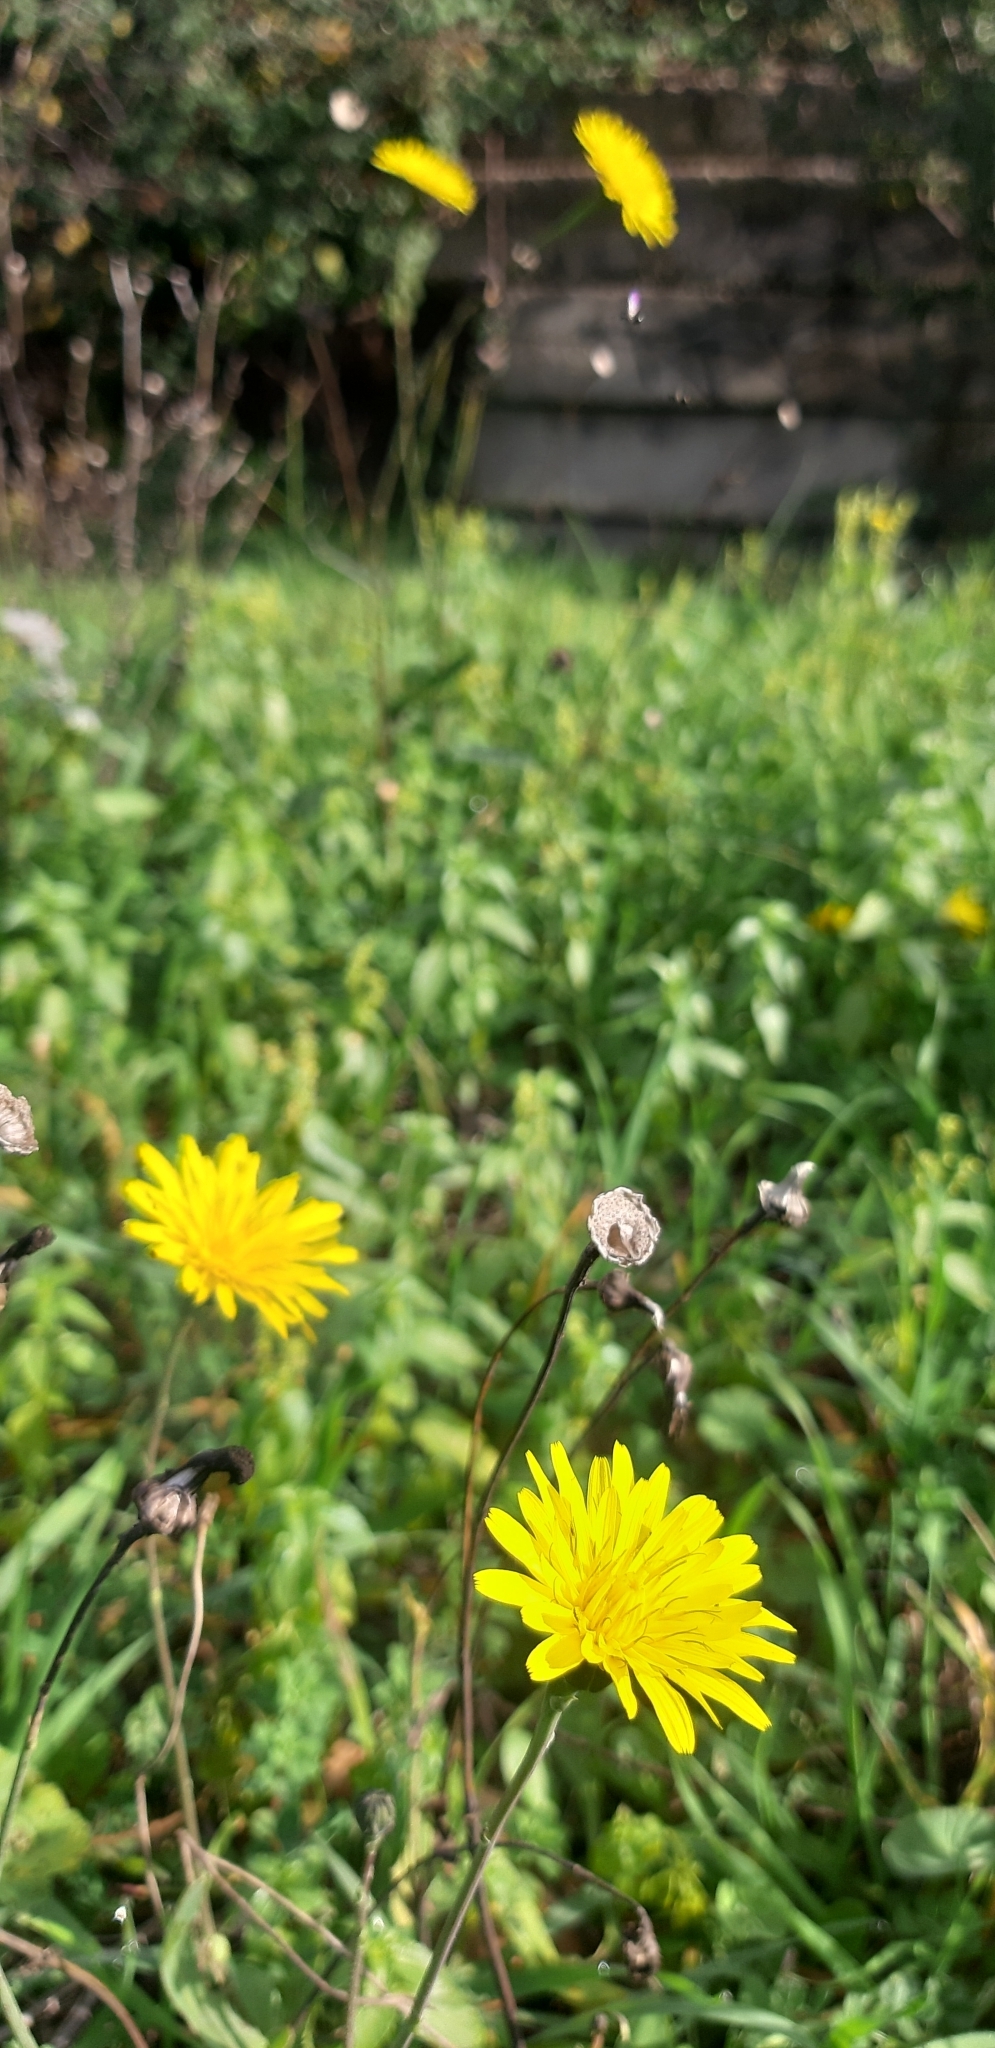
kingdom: Plantae
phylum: Tracheophyta
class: Magnoliopsida
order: Asterales
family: Asteraceae
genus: Reichardia
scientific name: Reichardia picroides
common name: Common brighteyes
